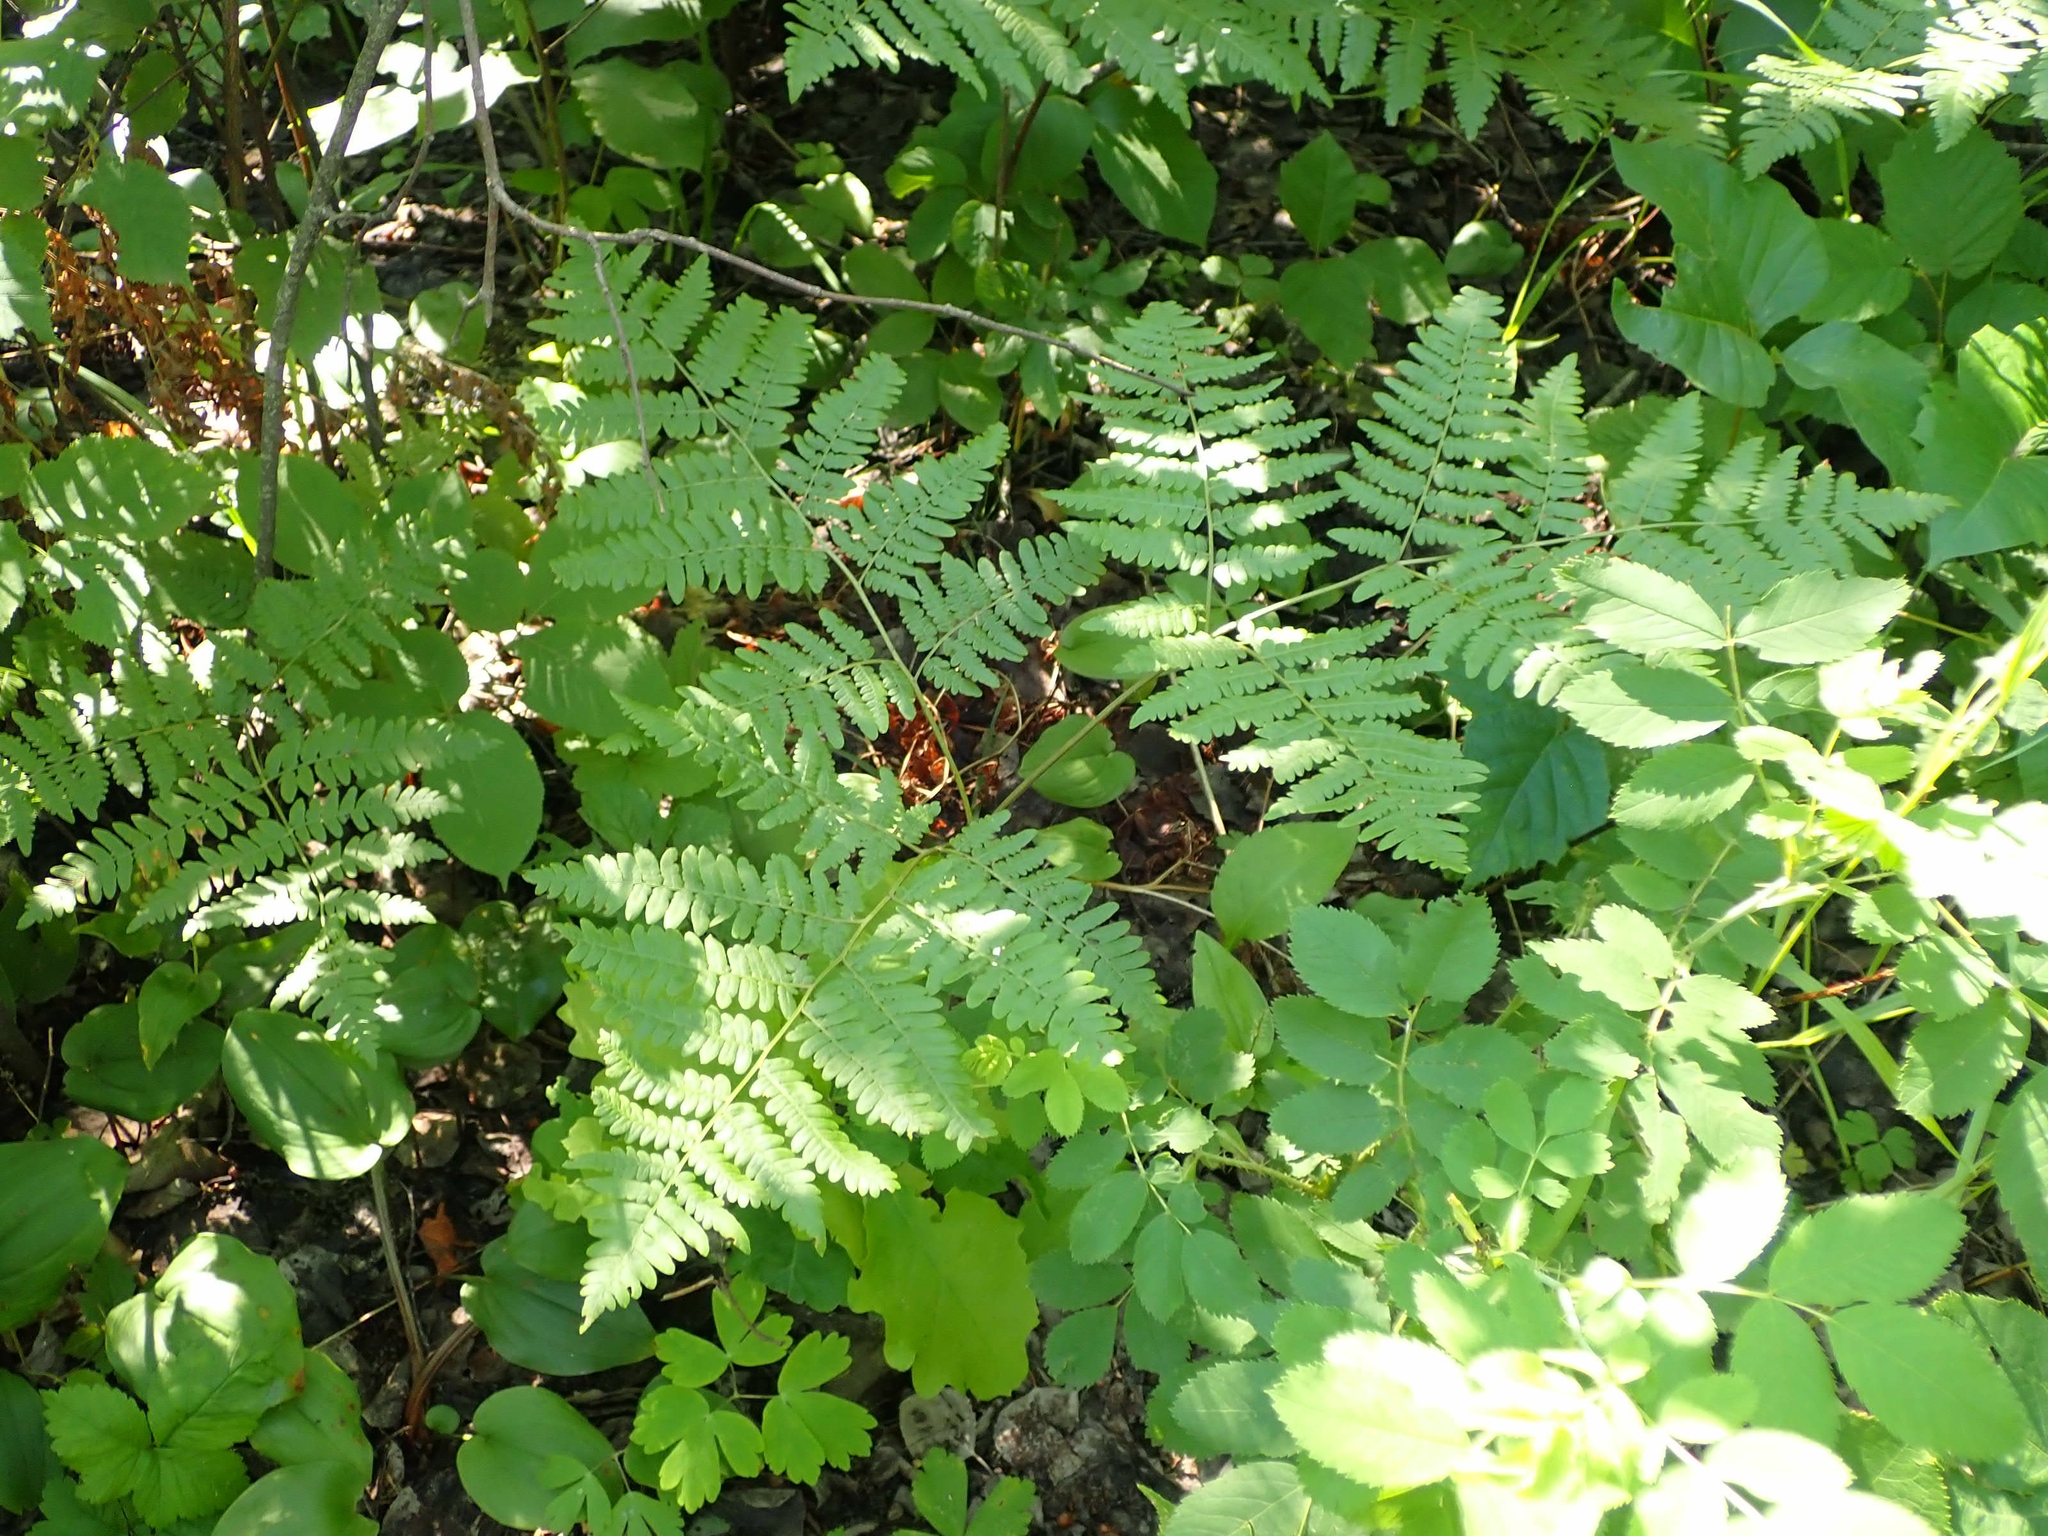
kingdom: Plantae
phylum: Tracheophyta
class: Polypodiopsida
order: Polypodiales
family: Dennstaedtiaceae
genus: Pteridium
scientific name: Pteridium aquilinum
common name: Bracken
